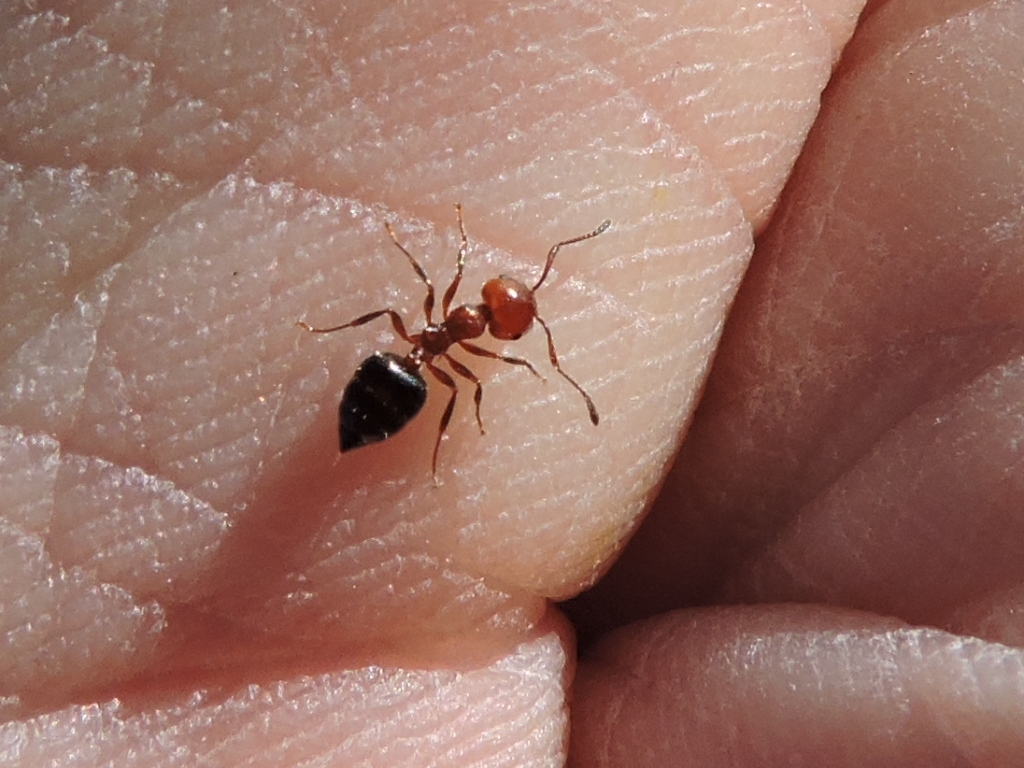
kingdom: Animalia
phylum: Arthropoda
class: Insecta
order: Hymenoptera
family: Formicidae
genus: Crematogaster
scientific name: Crematogaster laeviuscula
